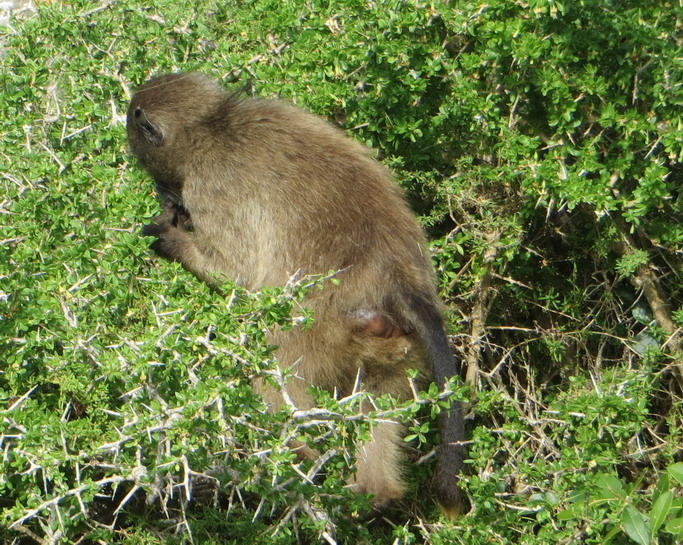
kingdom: Animalia
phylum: Chordata
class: Mammalia
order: Primates
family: Cercopithecidae
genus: Papio
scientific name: Papio ursinus
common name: Chacma baboon
